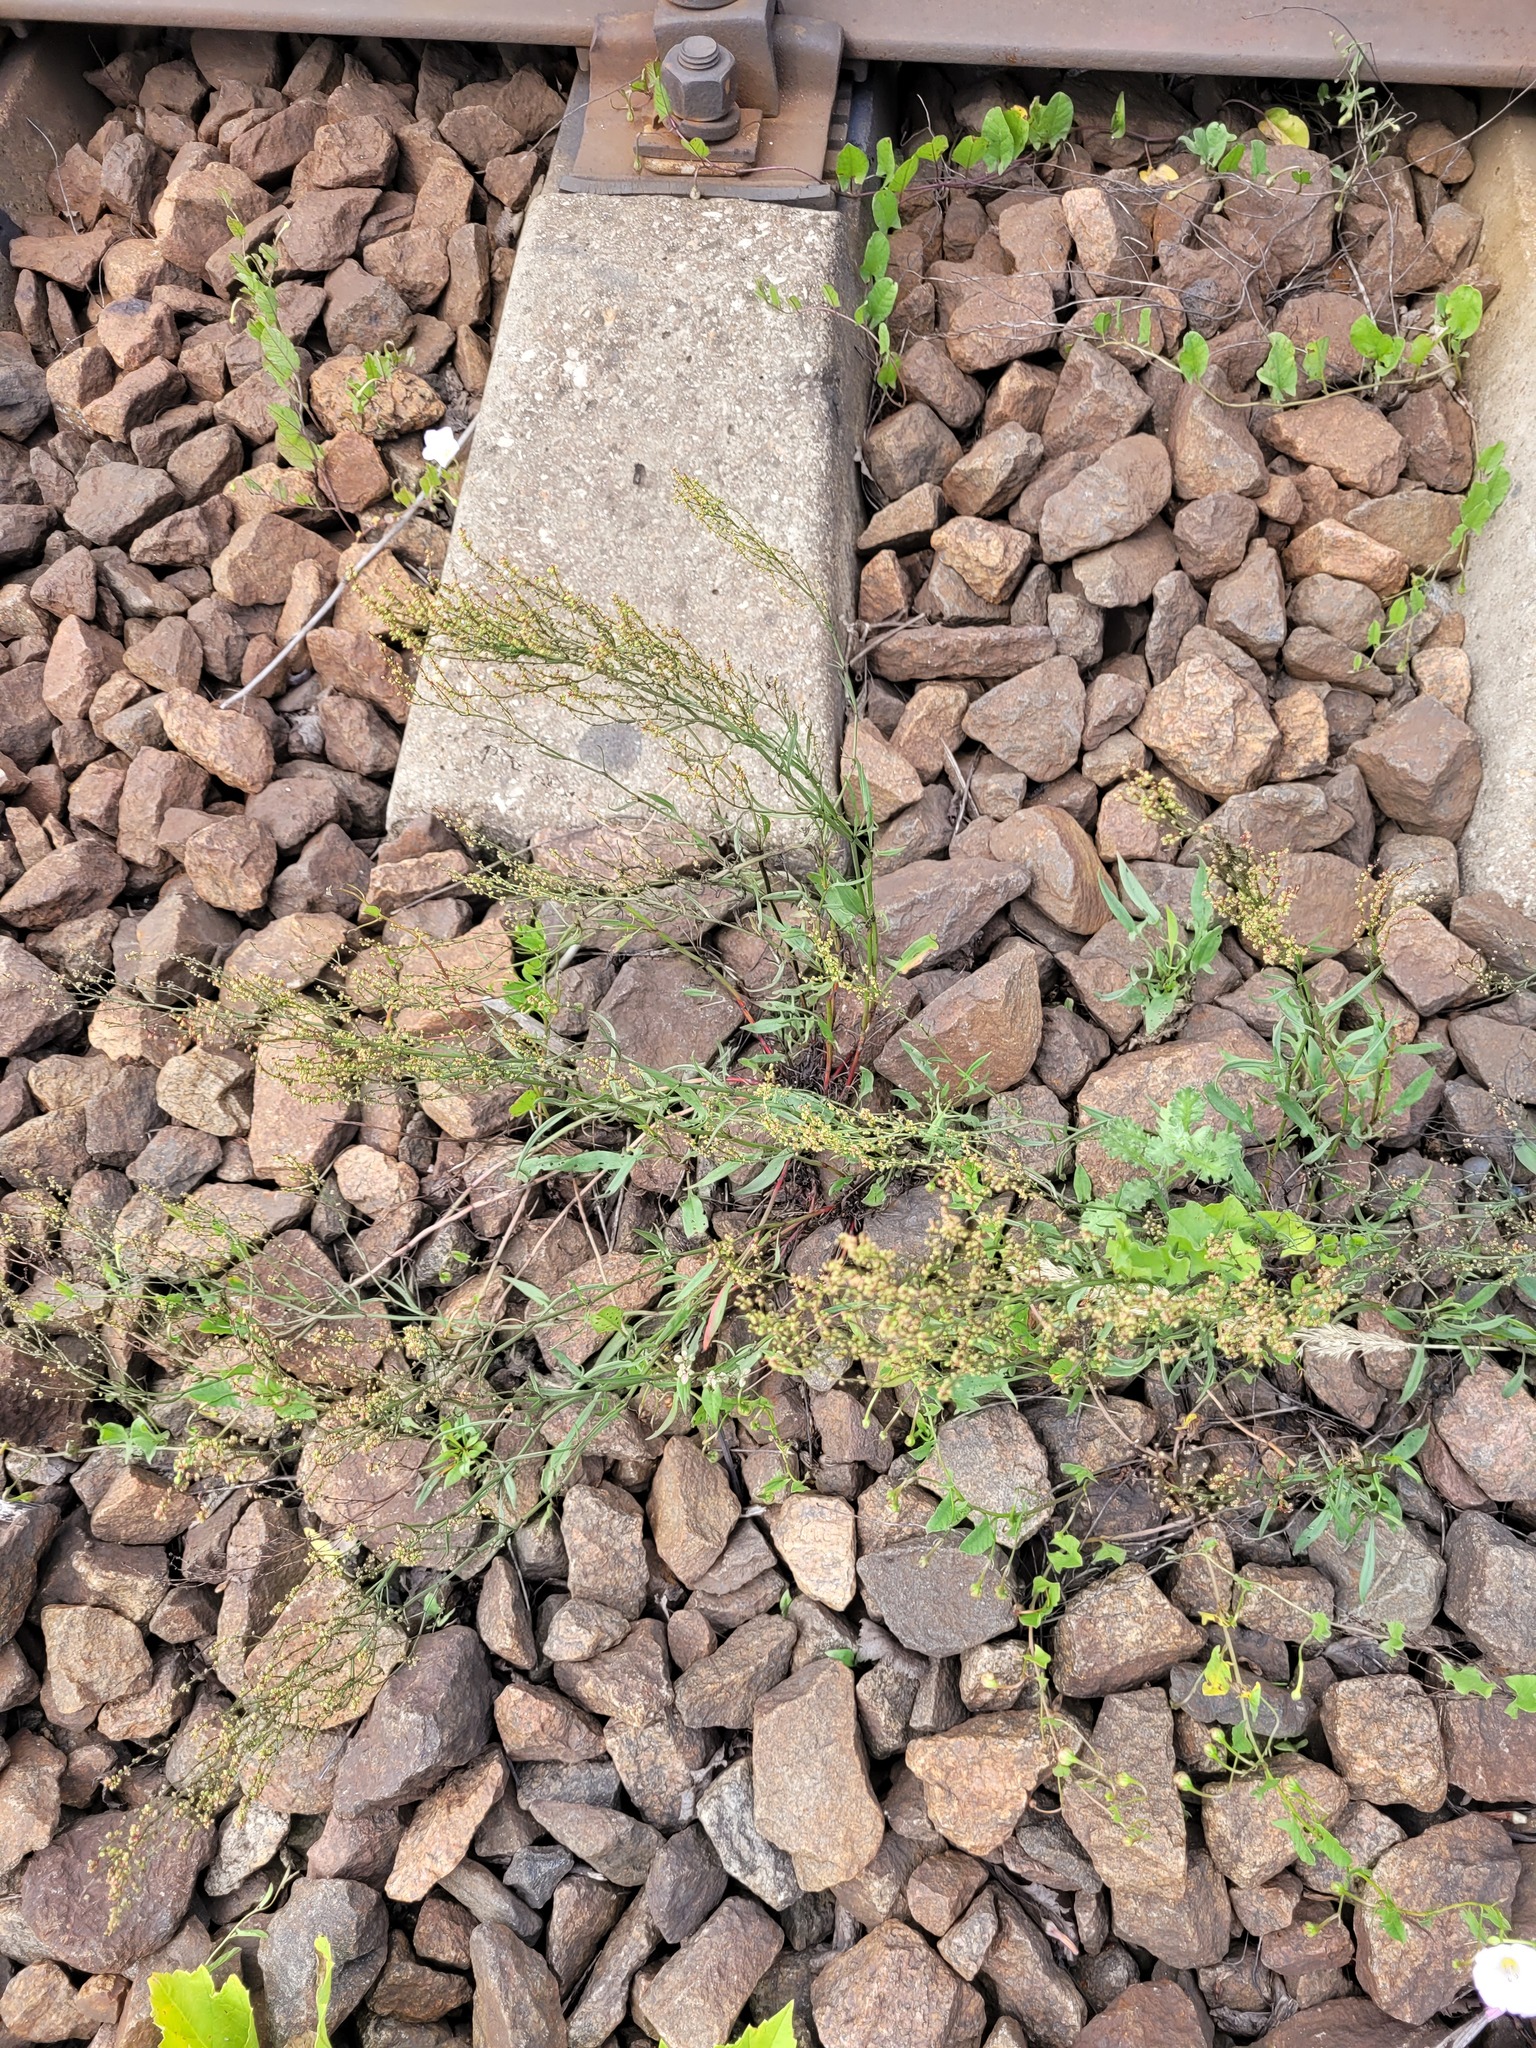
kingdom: Plantae
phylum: Tracheophyta
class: Magnoliopsida
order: Caryophyllales
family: Polygonaceae
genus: Rumex
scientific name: Rumex acetosella
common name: Common sheep sorrel
